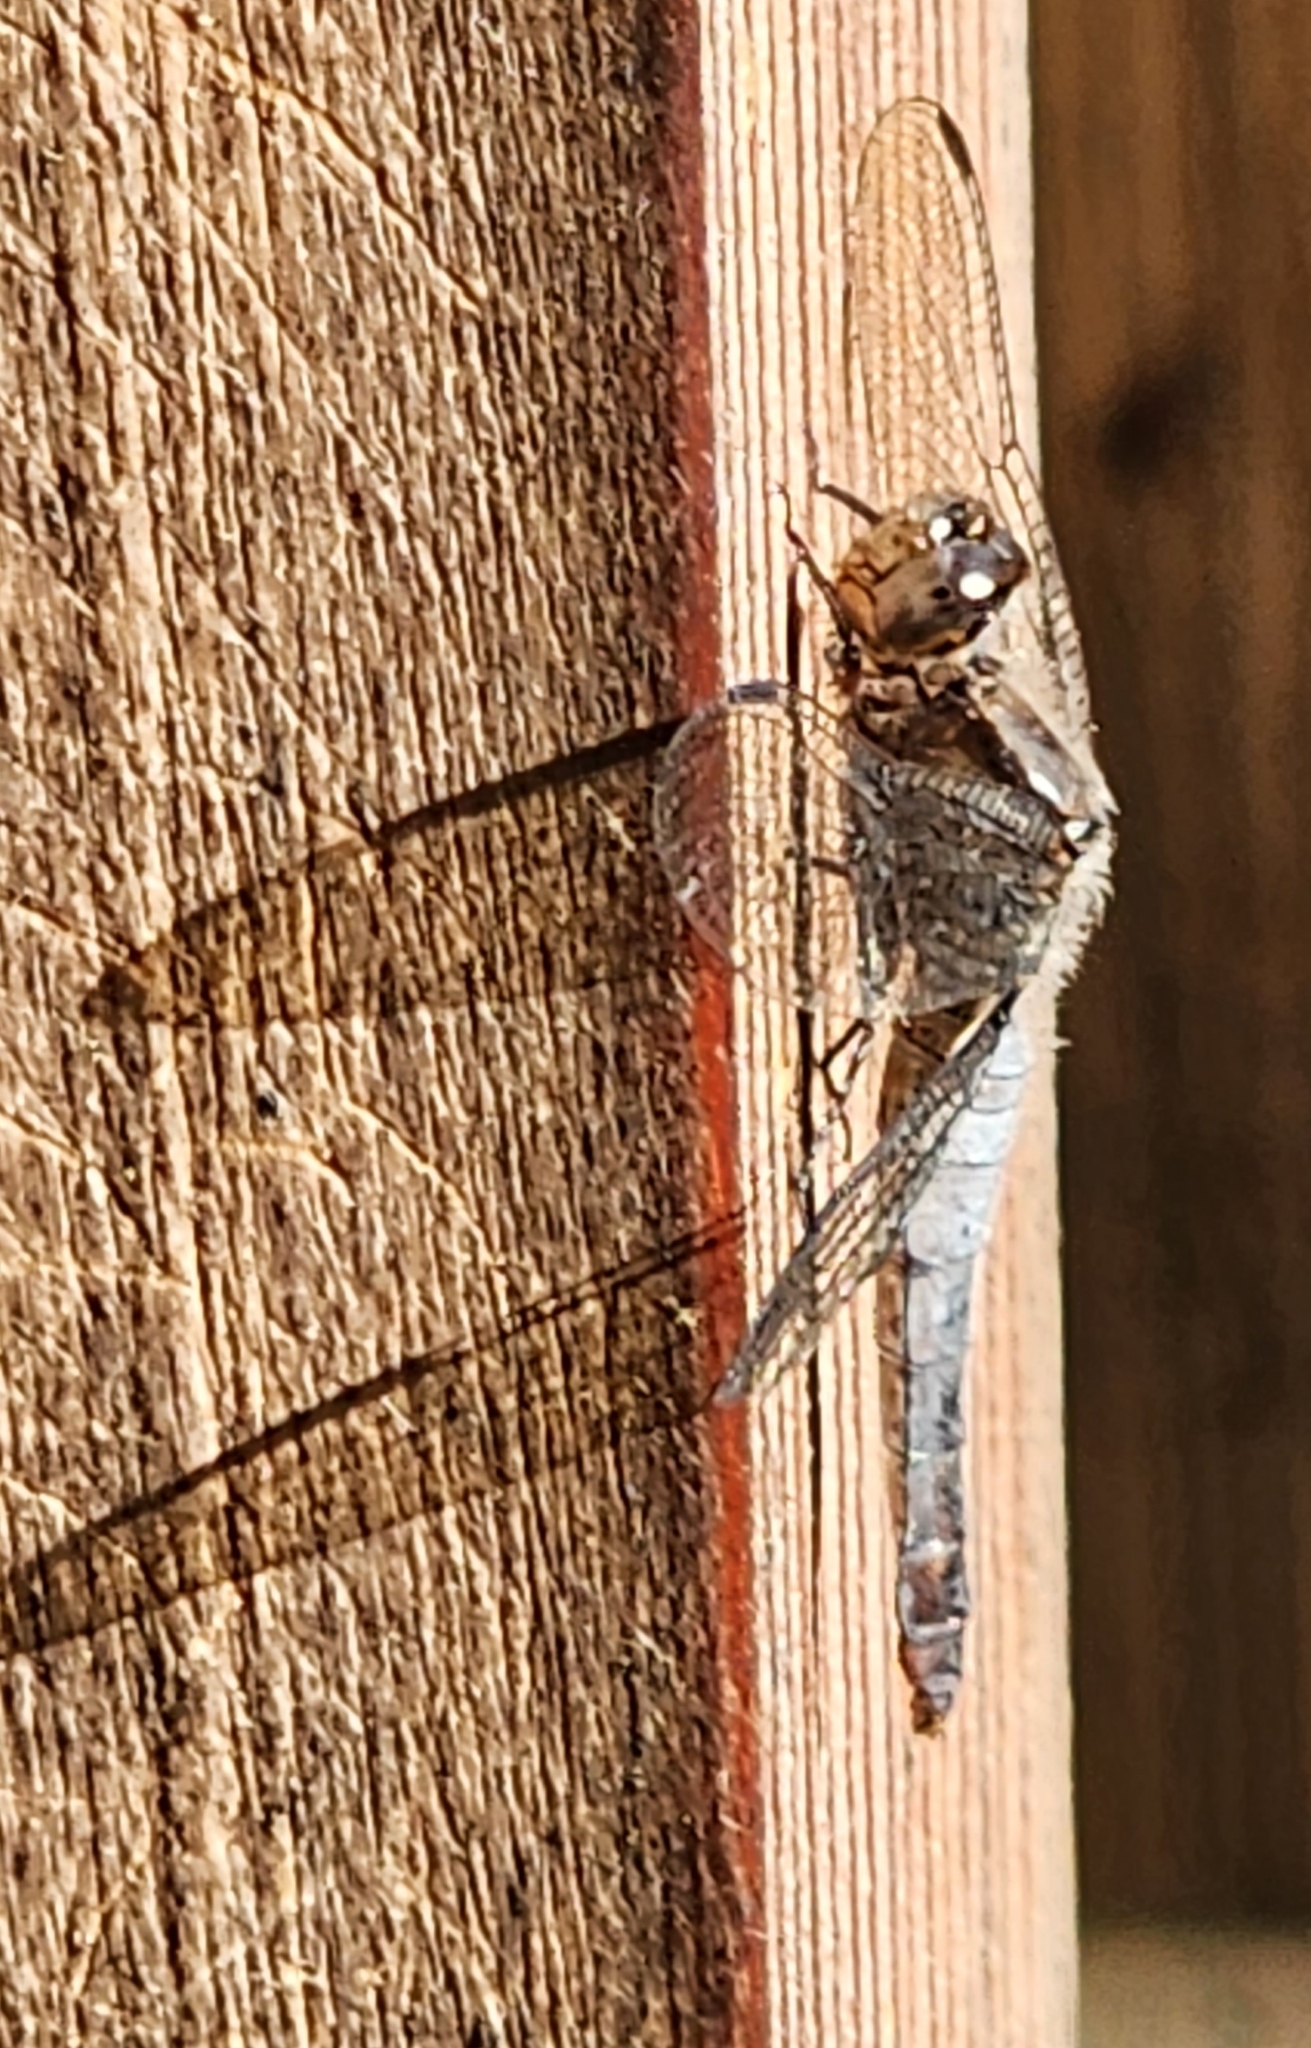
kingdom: Animalia
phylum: Arthropoda
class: Insecta
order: Odonata
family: Libellulidae
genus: Ladona
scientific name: Ladona julia
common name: Chalk-fronted corporal
